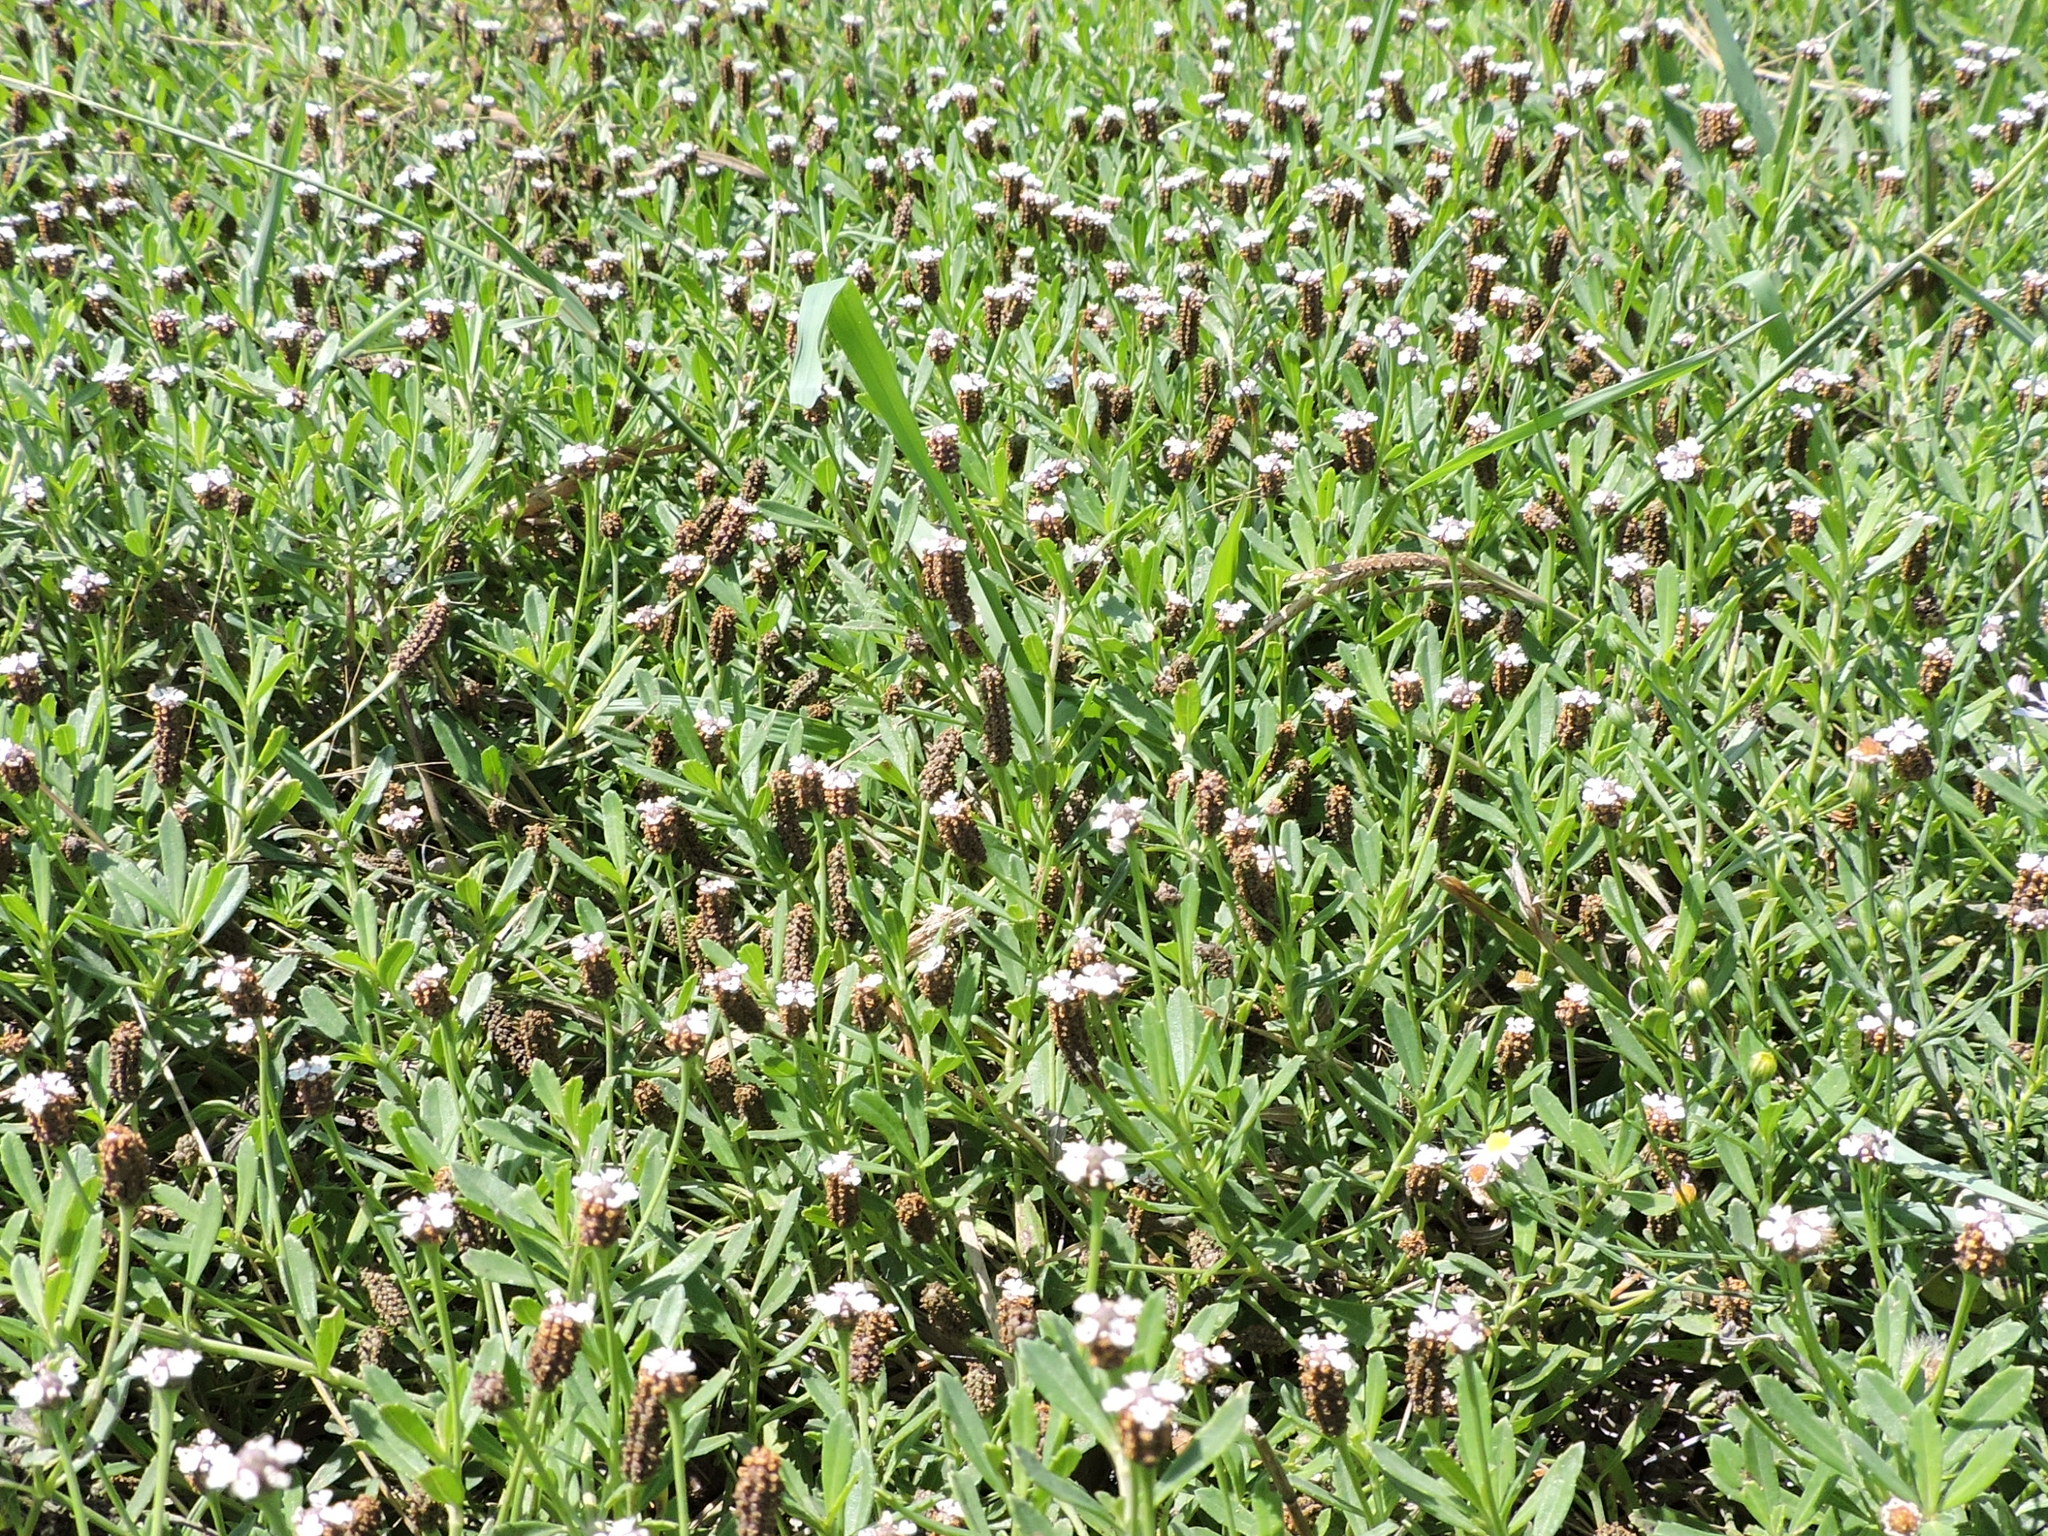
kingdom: Plantae
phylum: Tracheophyta
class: Magnoliopsida
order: Lamiales
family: Verbenaceae
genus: Phyla
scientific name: Phyla nodiflora
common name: Frogfruit
